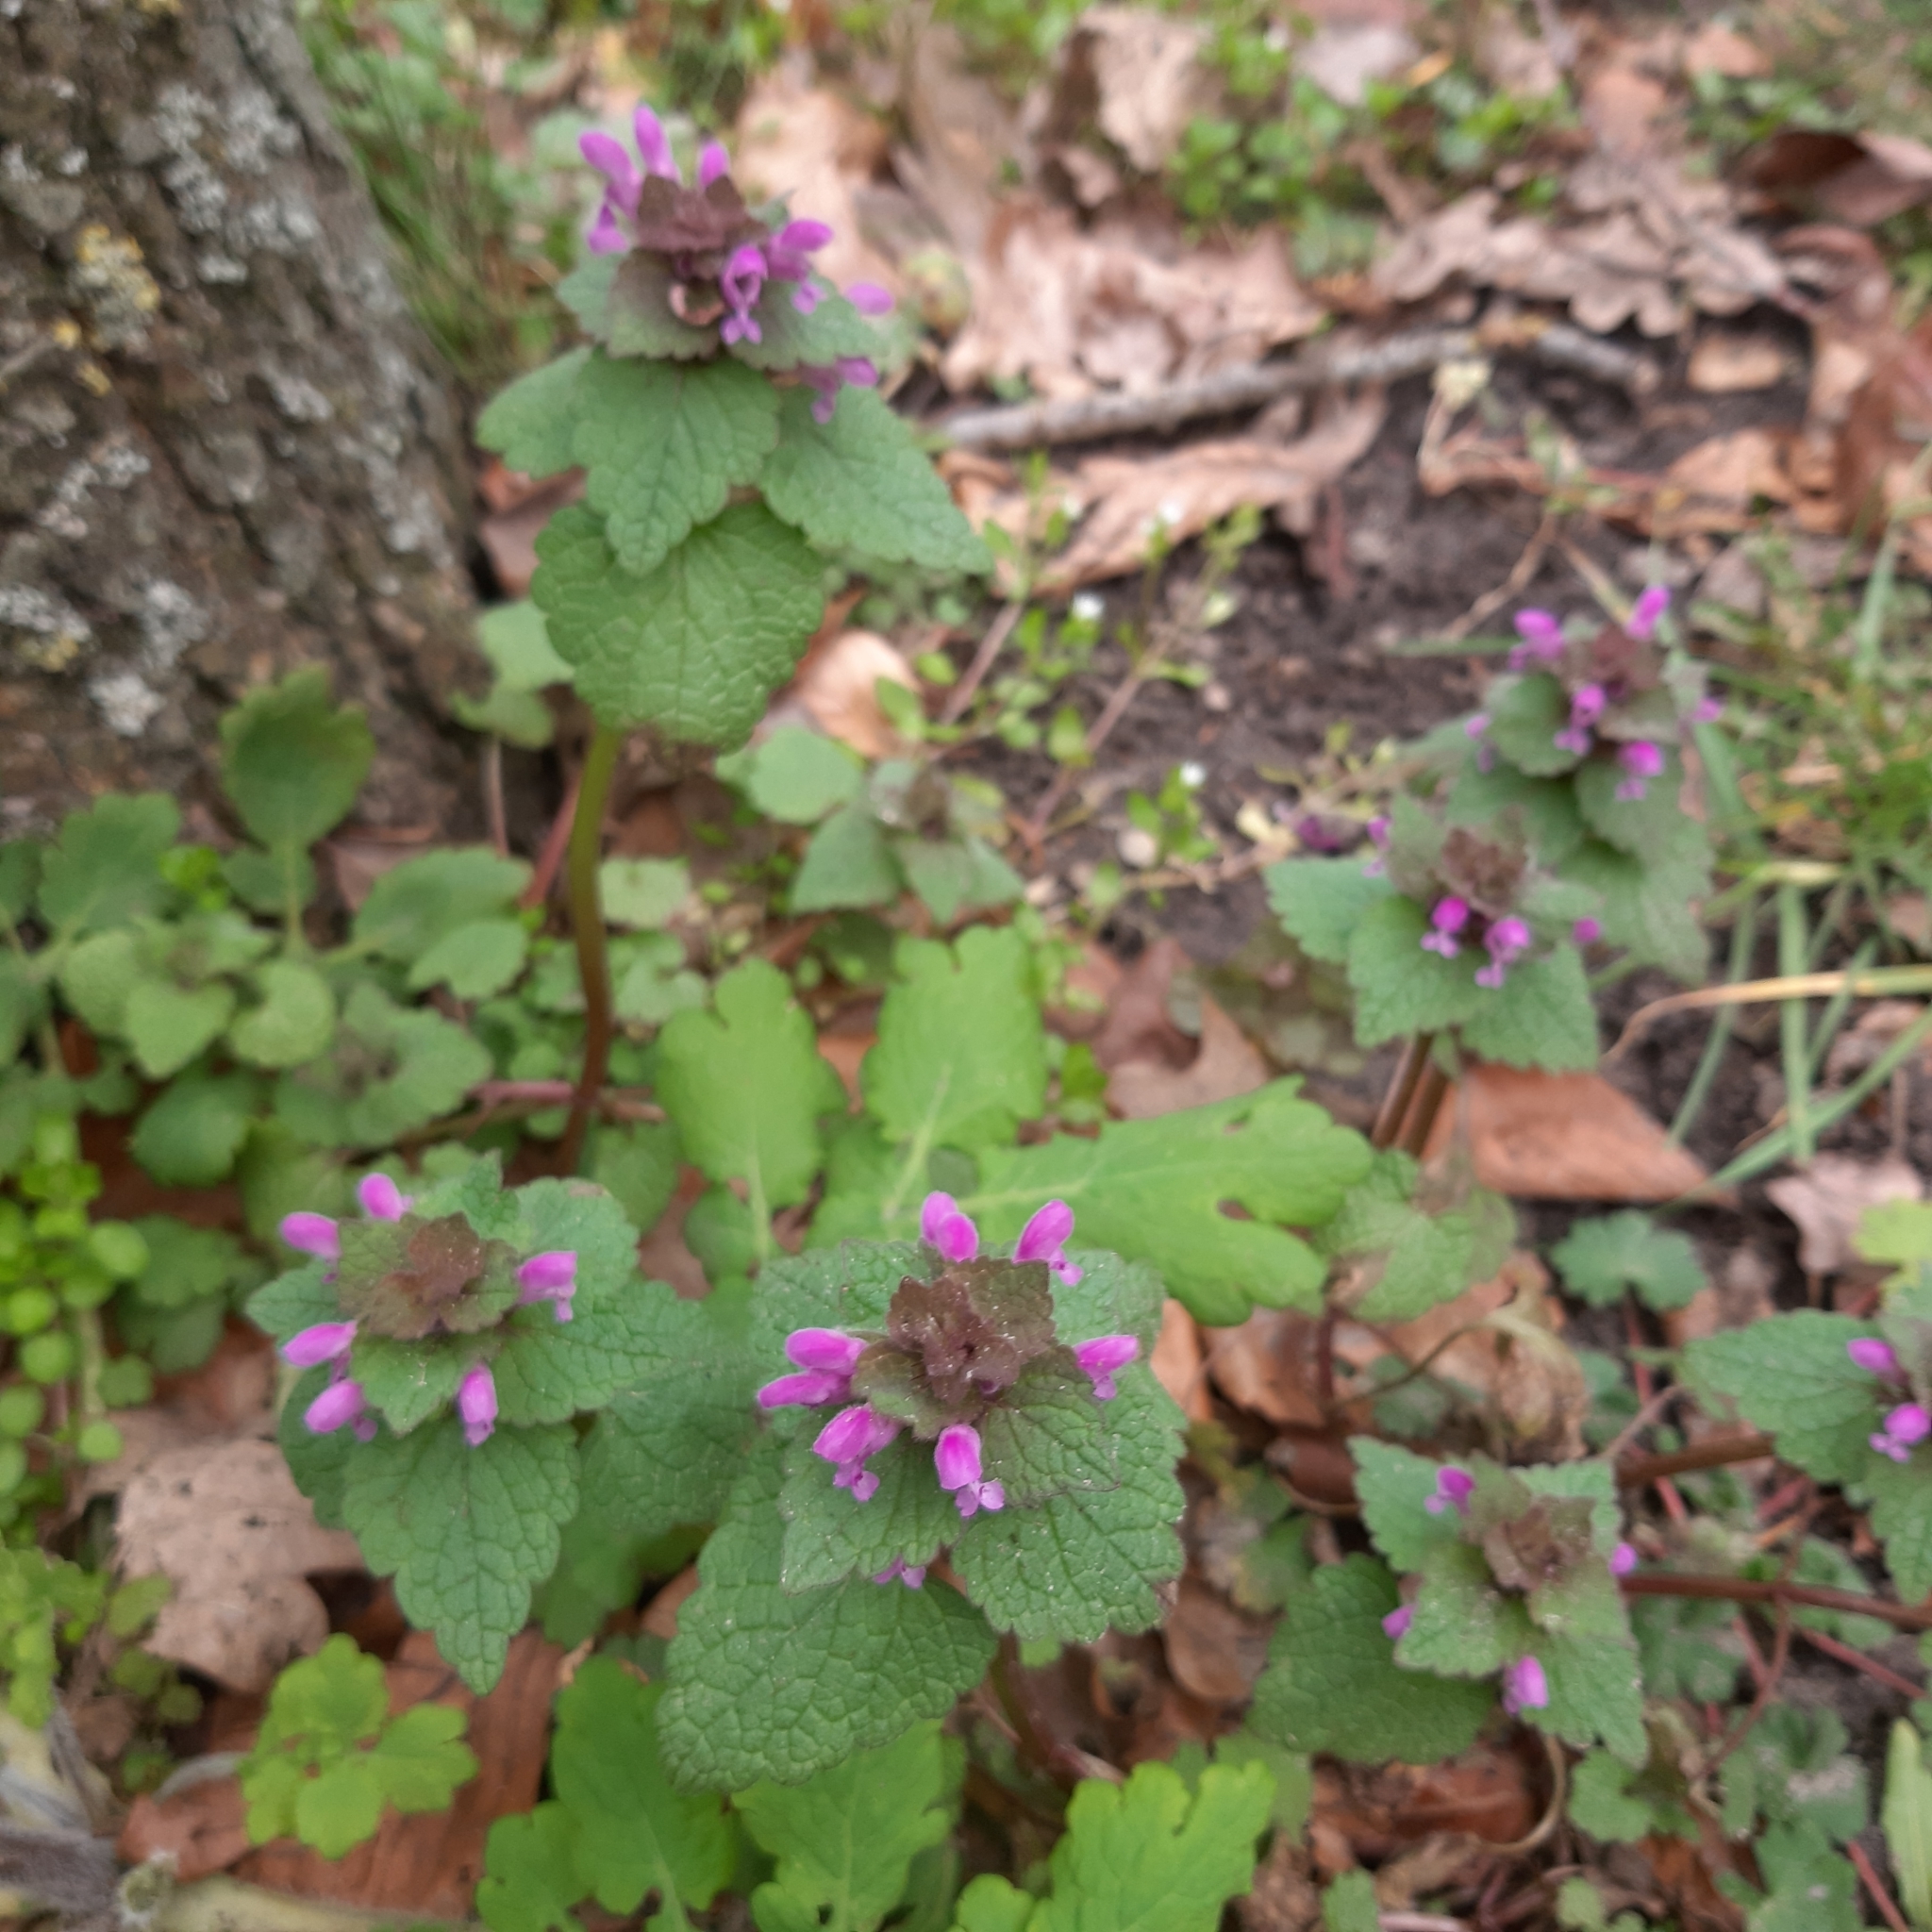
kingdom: Plantae
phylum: Tracheophyta
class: Magnoliopsida
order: Lamiales
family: Lamiaceae
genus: Lamium
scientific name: Lamium purpureum
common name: Red dead-nettle
